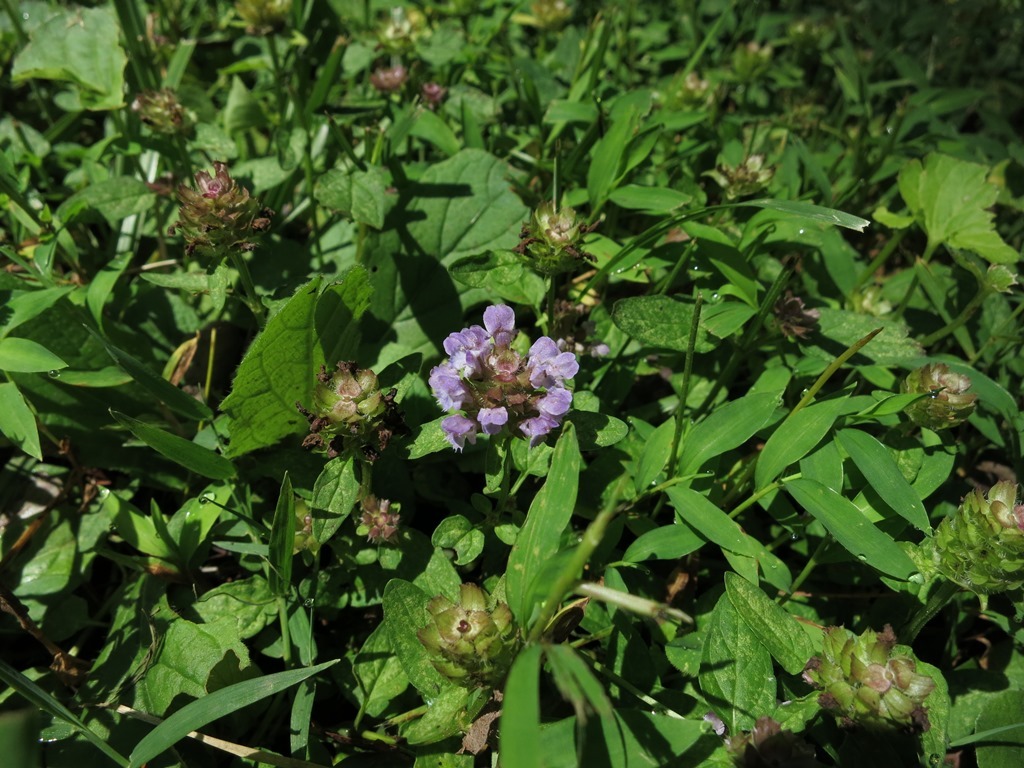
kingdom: Plantae
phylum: Tracheophyta
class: Magnoliopsida
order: Lamiales
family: Lamiaceae
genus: Prunella
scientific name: Prunella vulgaris
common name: Heal-all
